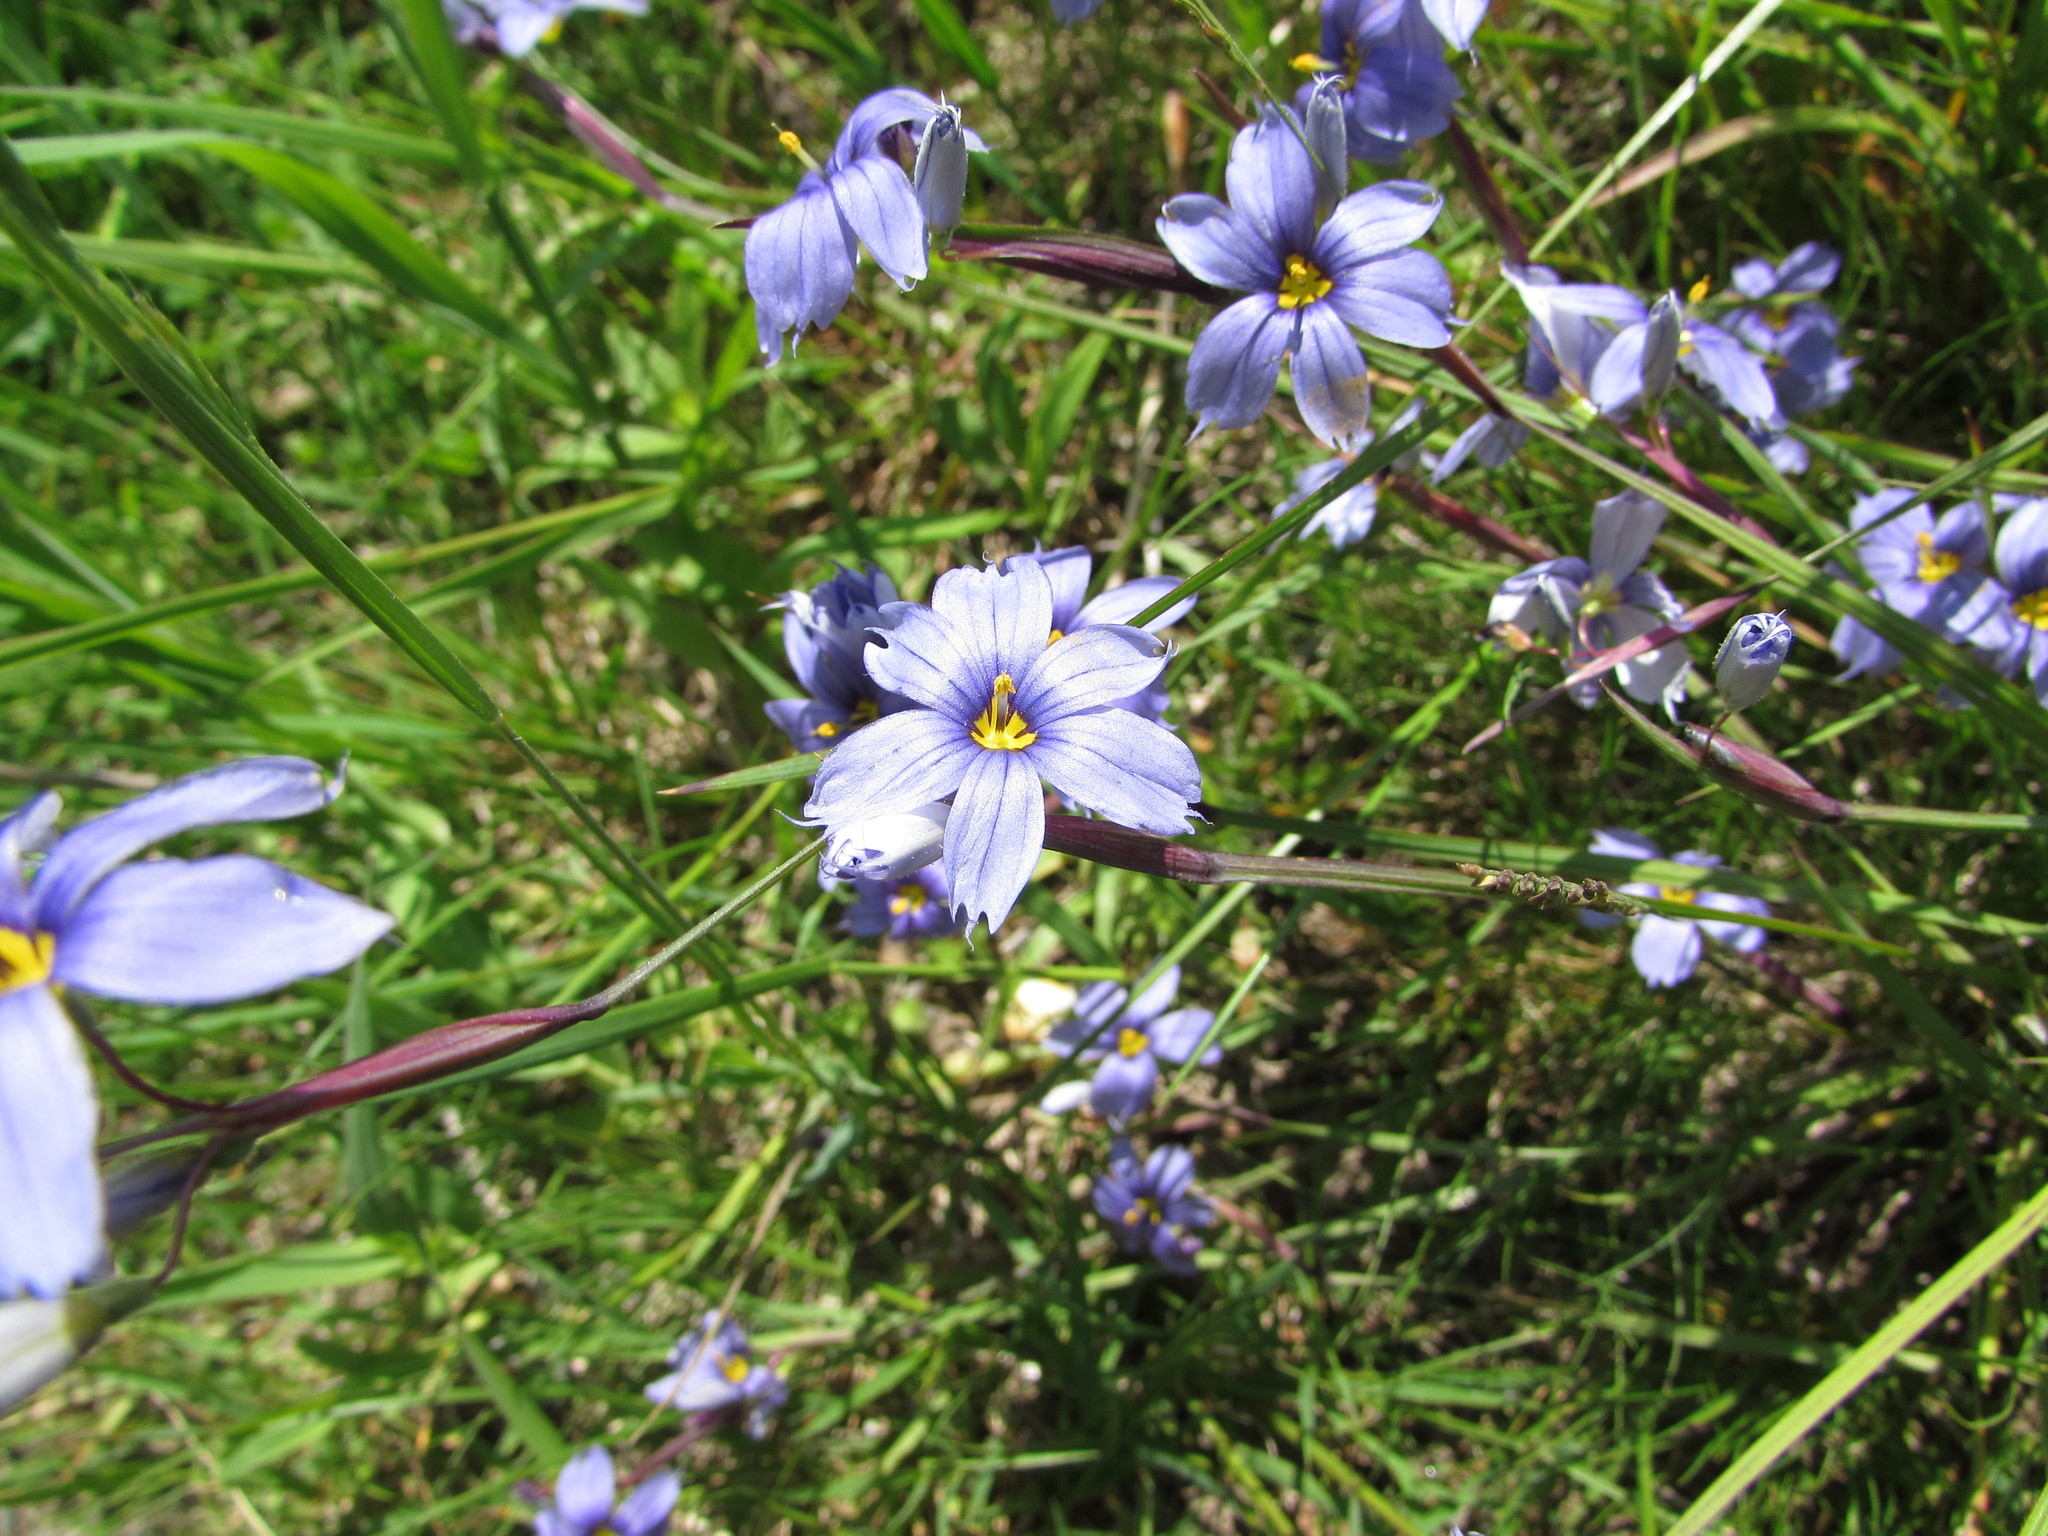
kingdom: Plantae
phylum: Tracheophyta
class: Liliopsida
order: Asparagales
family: Iridaceae
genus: Sisyrinchium
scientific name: Sisyrinchium montanum
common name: American blue-eyed-grass
